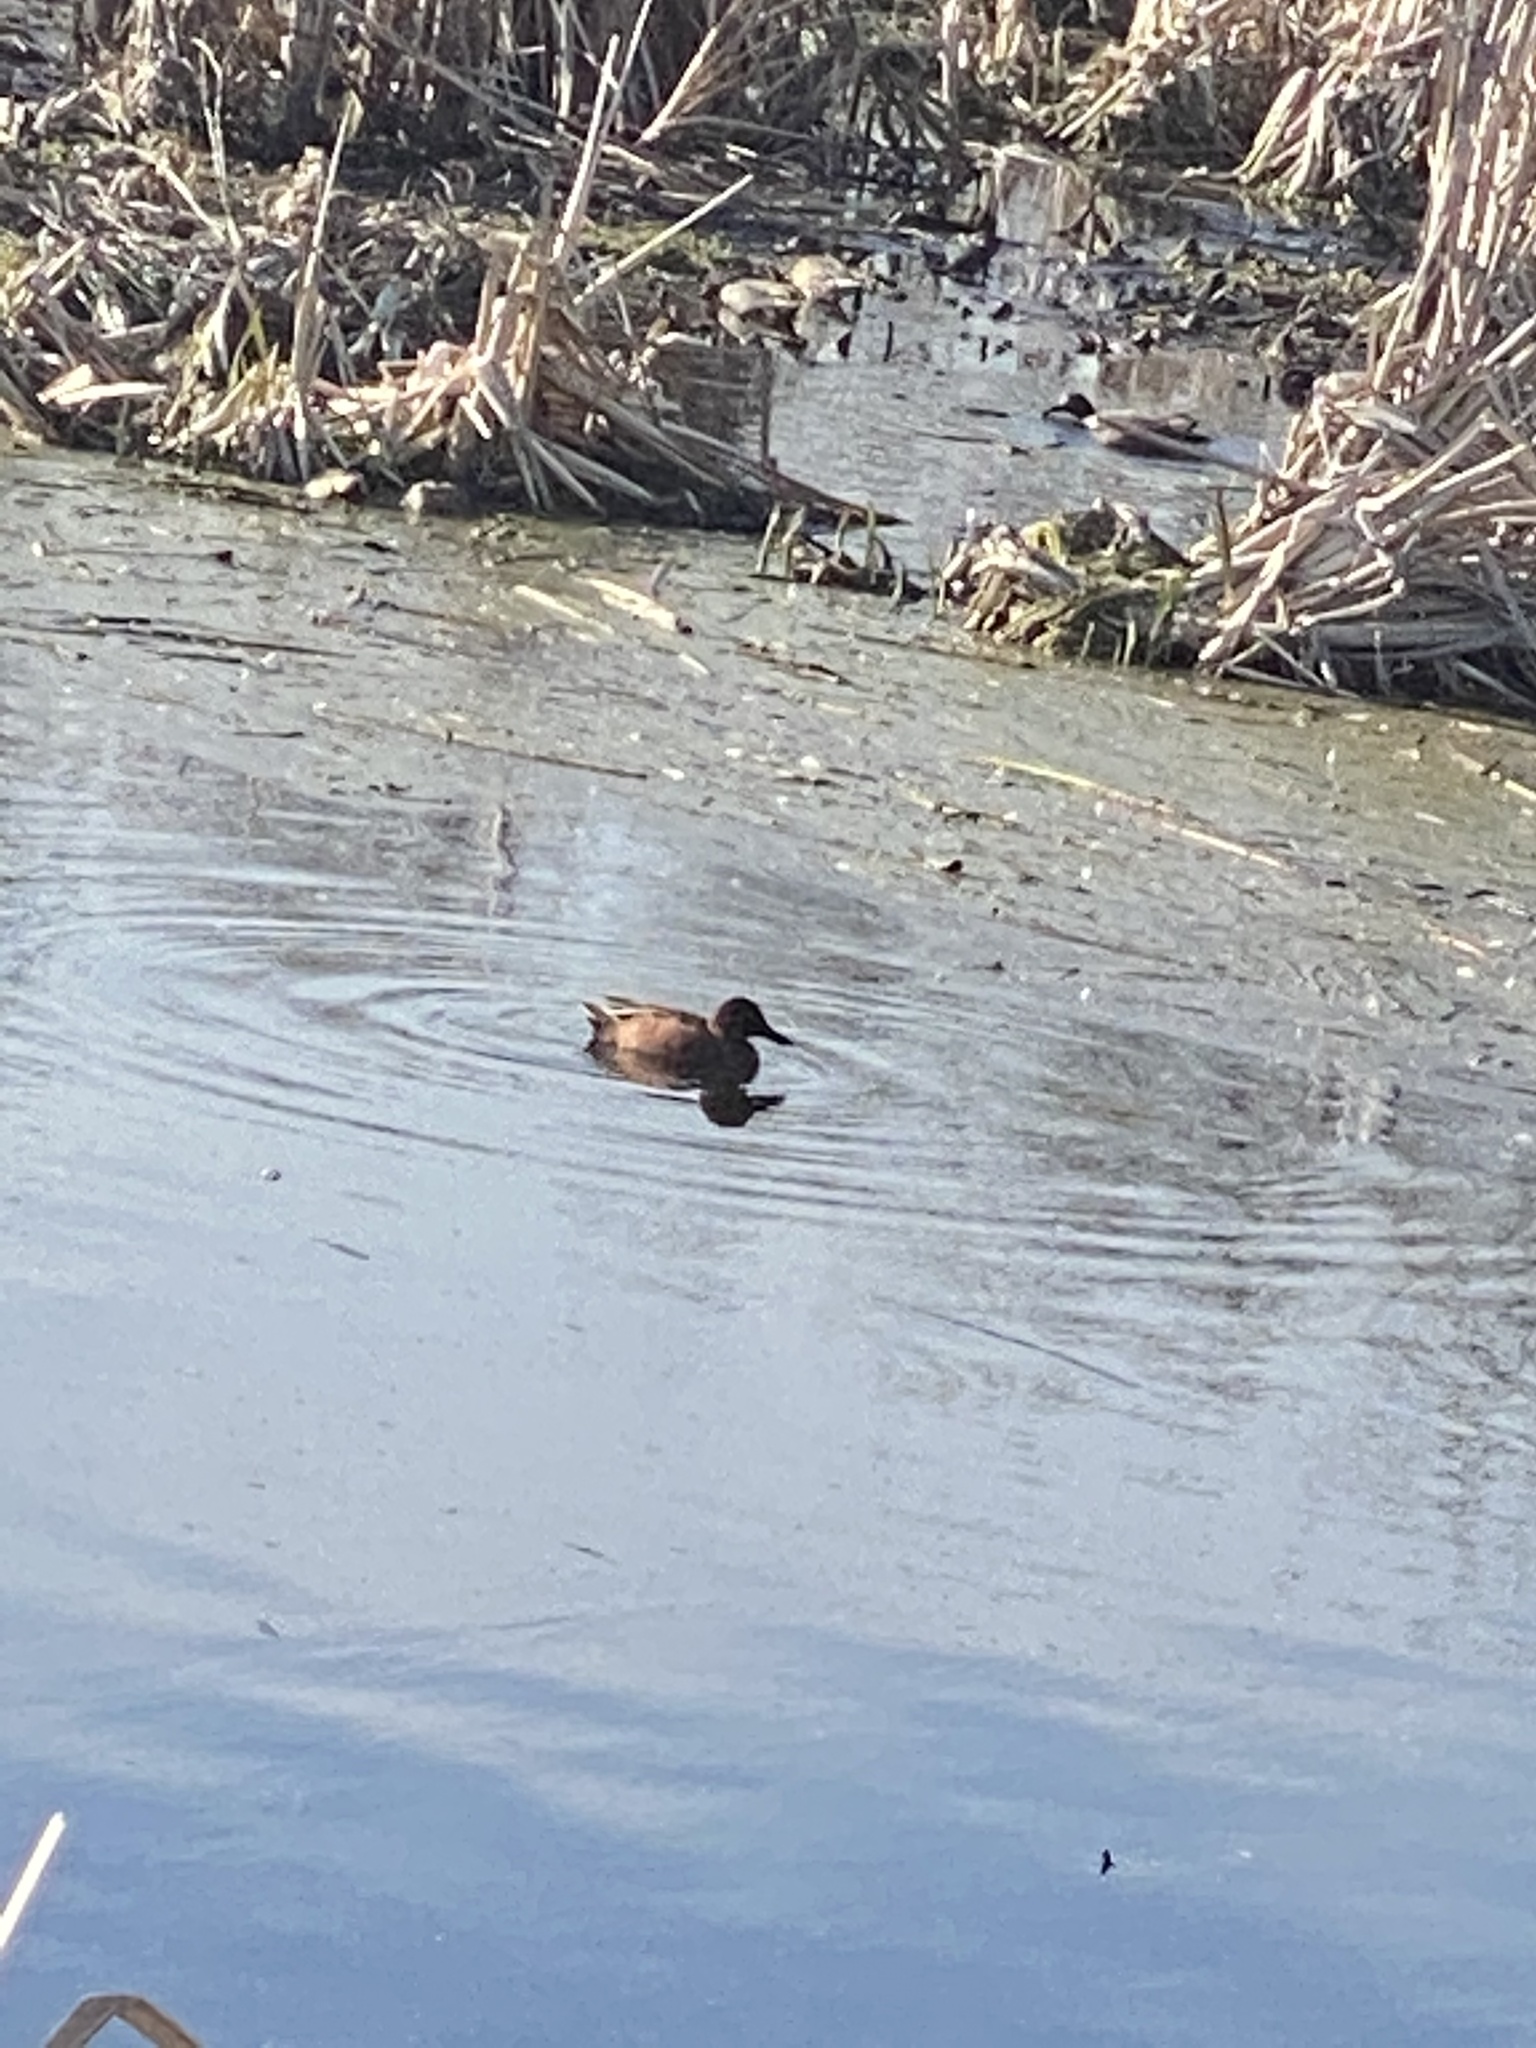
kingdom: Animalia
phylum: Chordata
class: Aves
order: Anseriformes
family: Anatidae
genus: Spatula
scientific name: Spatula cyanoptera
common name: Cinnamon teal
